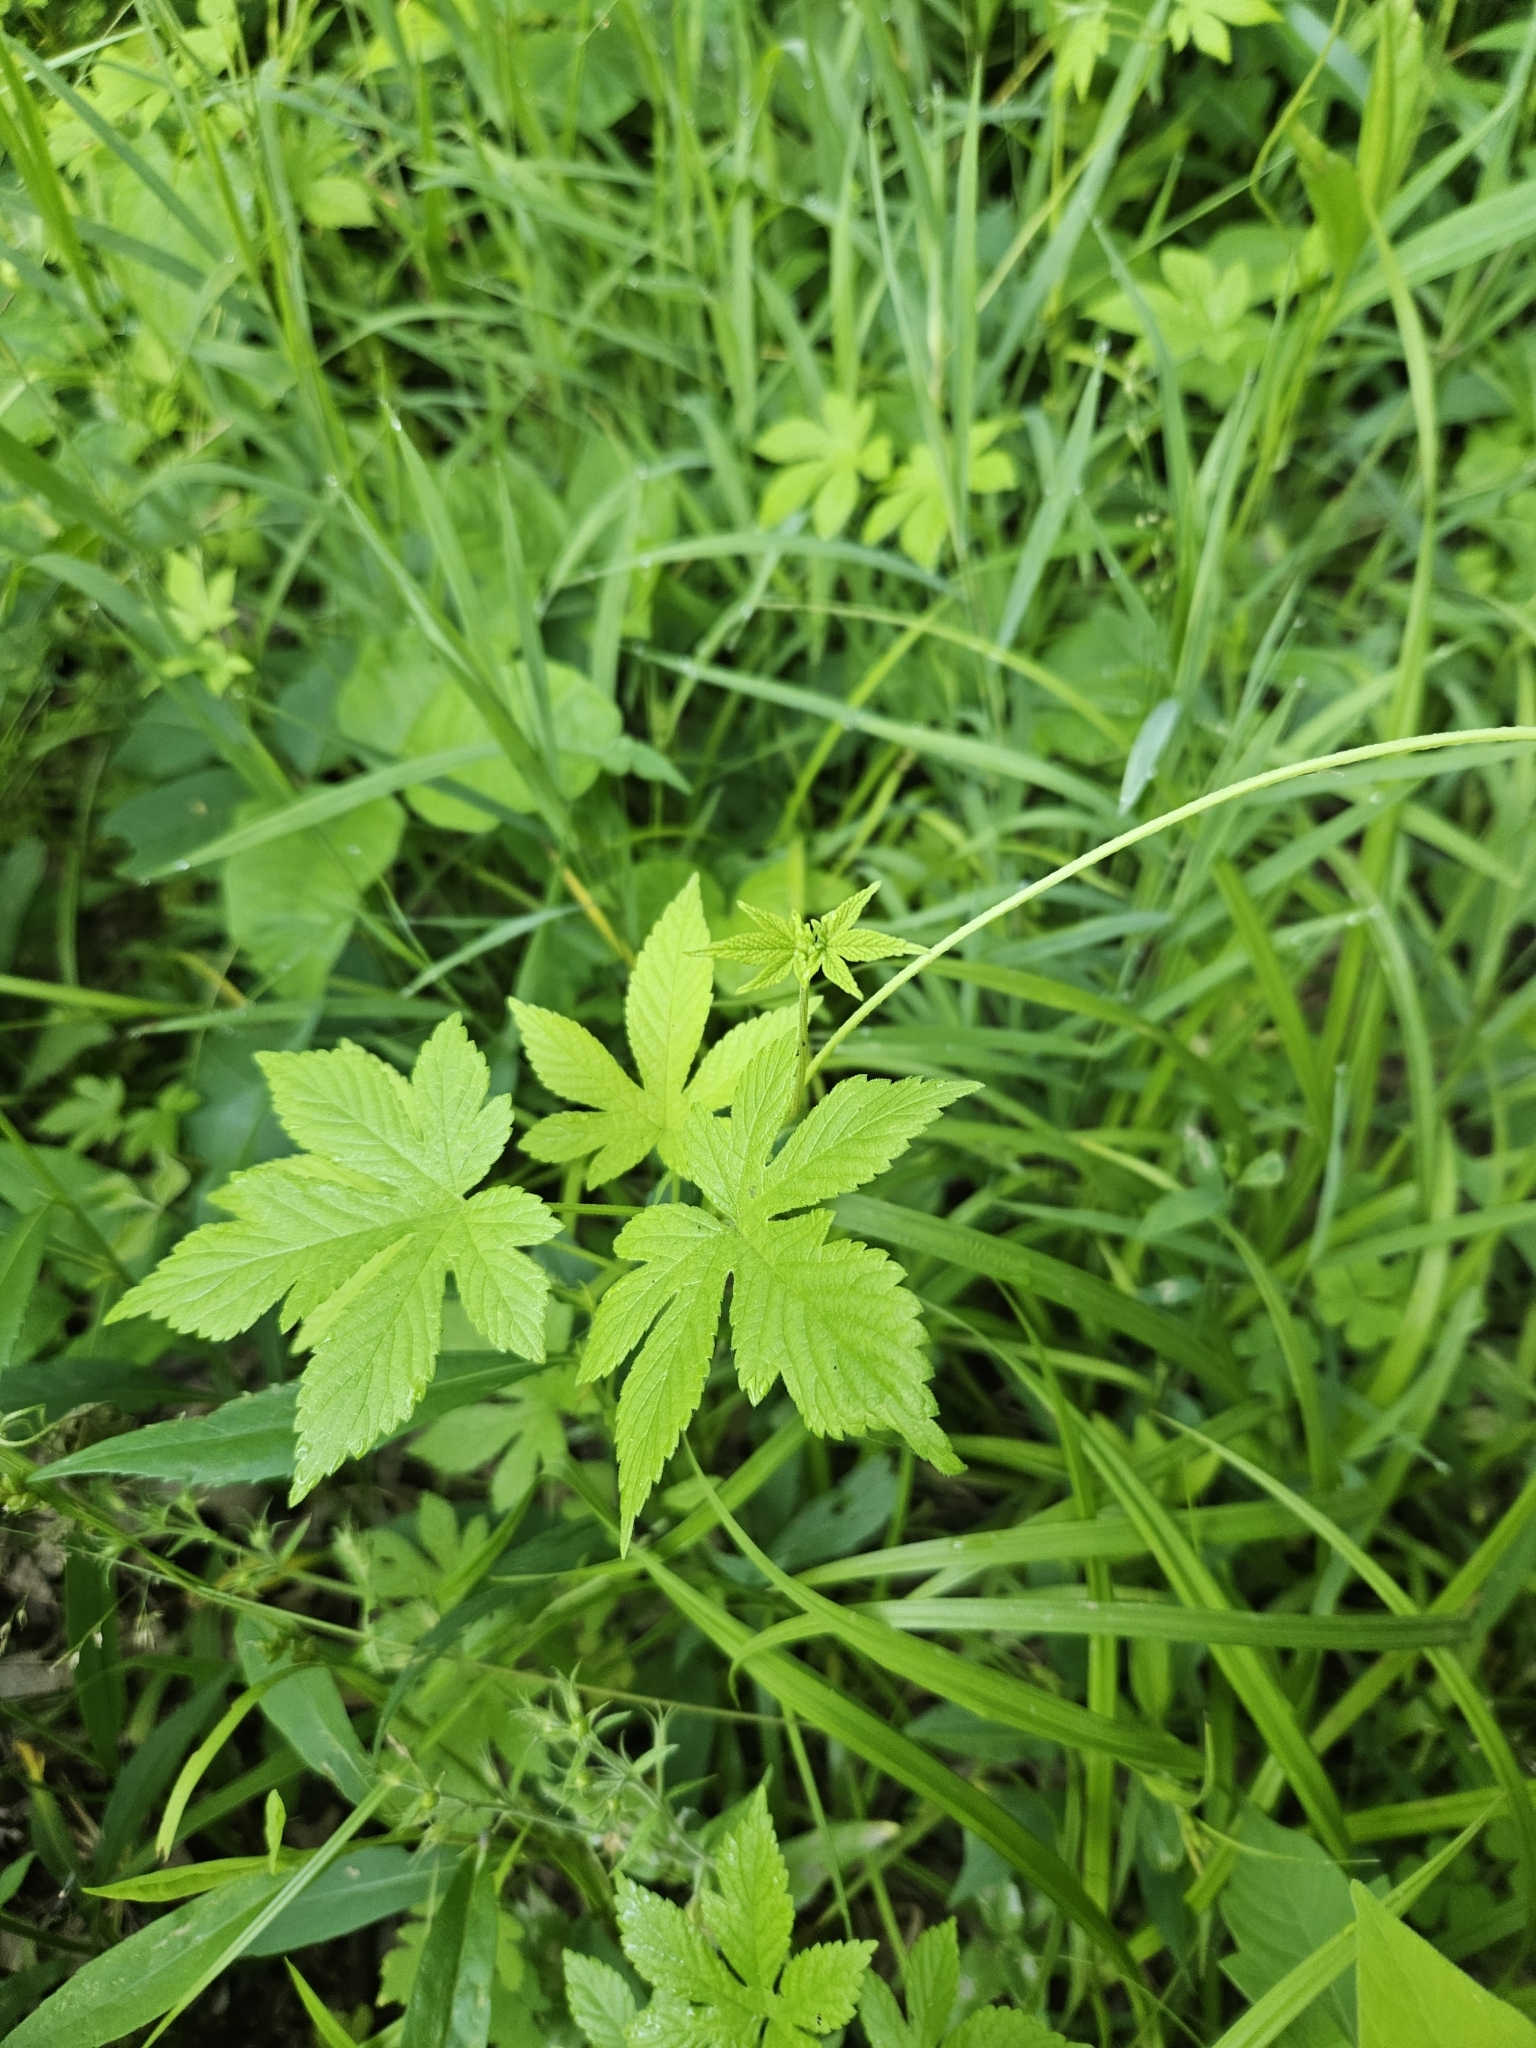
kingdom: Plantae
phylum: Tracheophyta
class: Magnoliopsida
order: Rosales
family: Cannabaceae
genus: Humulus
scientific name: Humulus scandens
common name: Japanese hop
